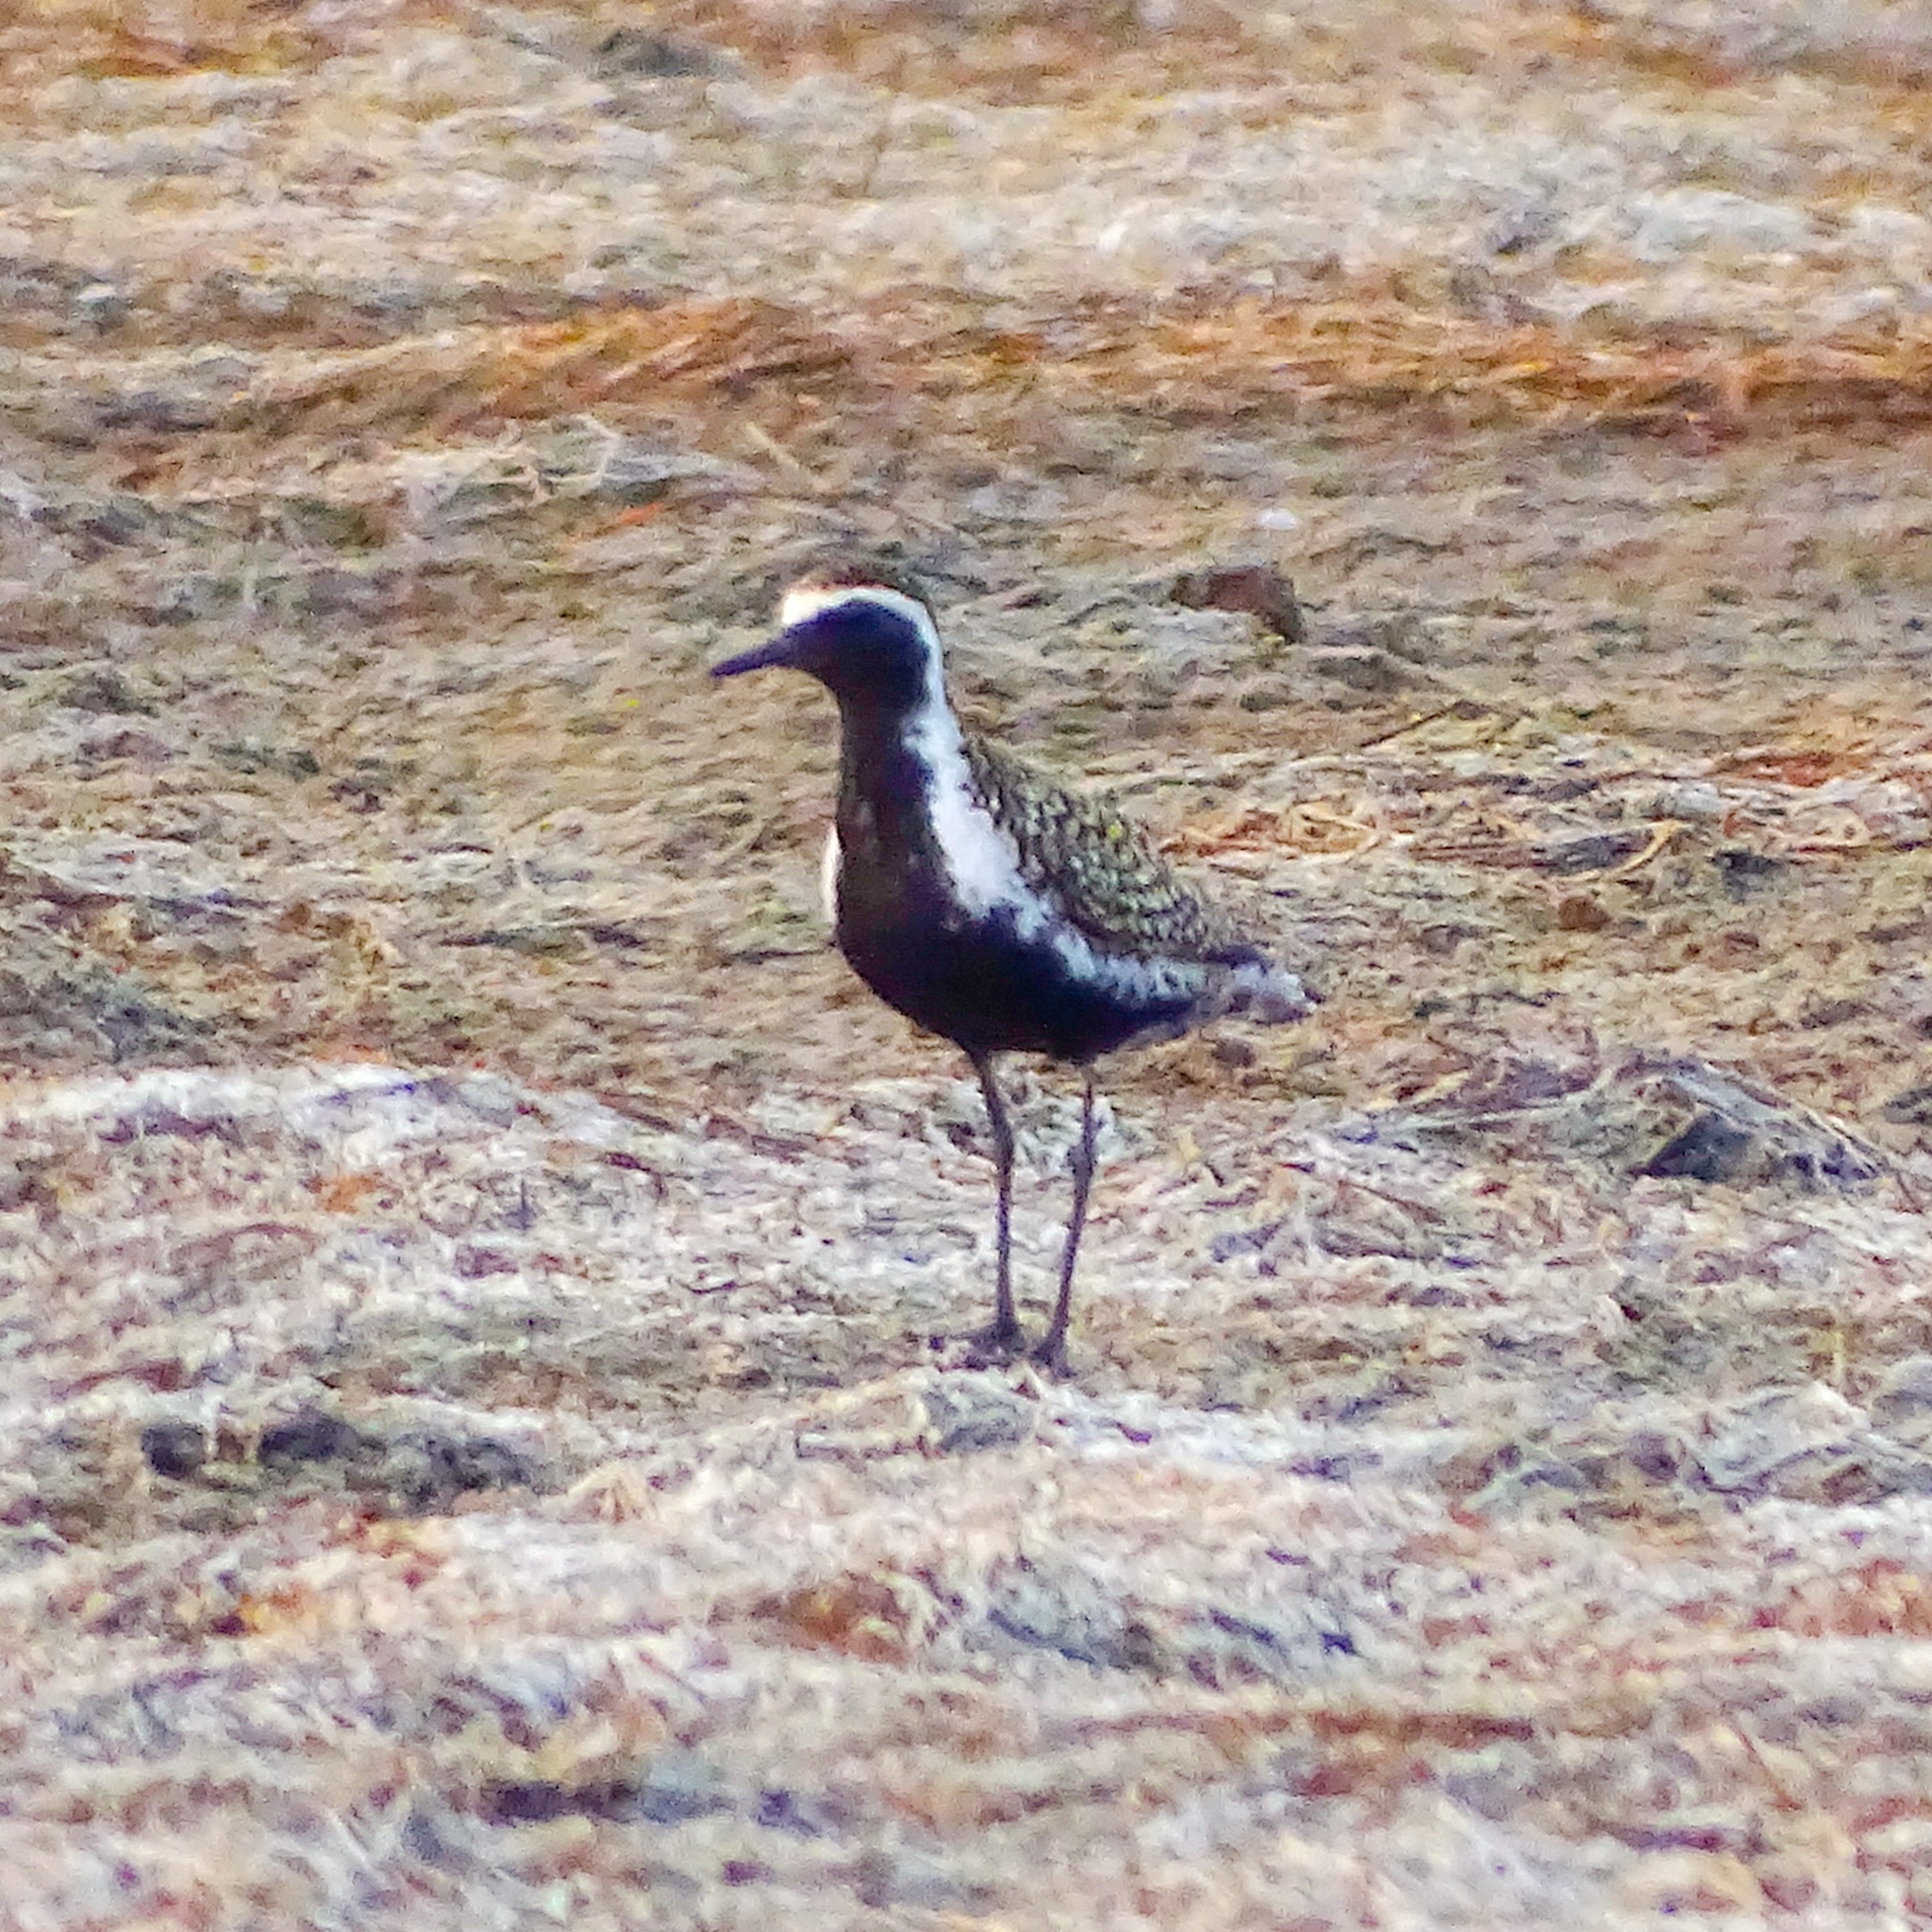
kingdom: Animalia
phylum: Chordata
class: Aves
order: Charadriiformes
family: Charadriidae
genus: Pluvialis
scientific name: Pluvialis fulva
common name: Pacific golden plover
